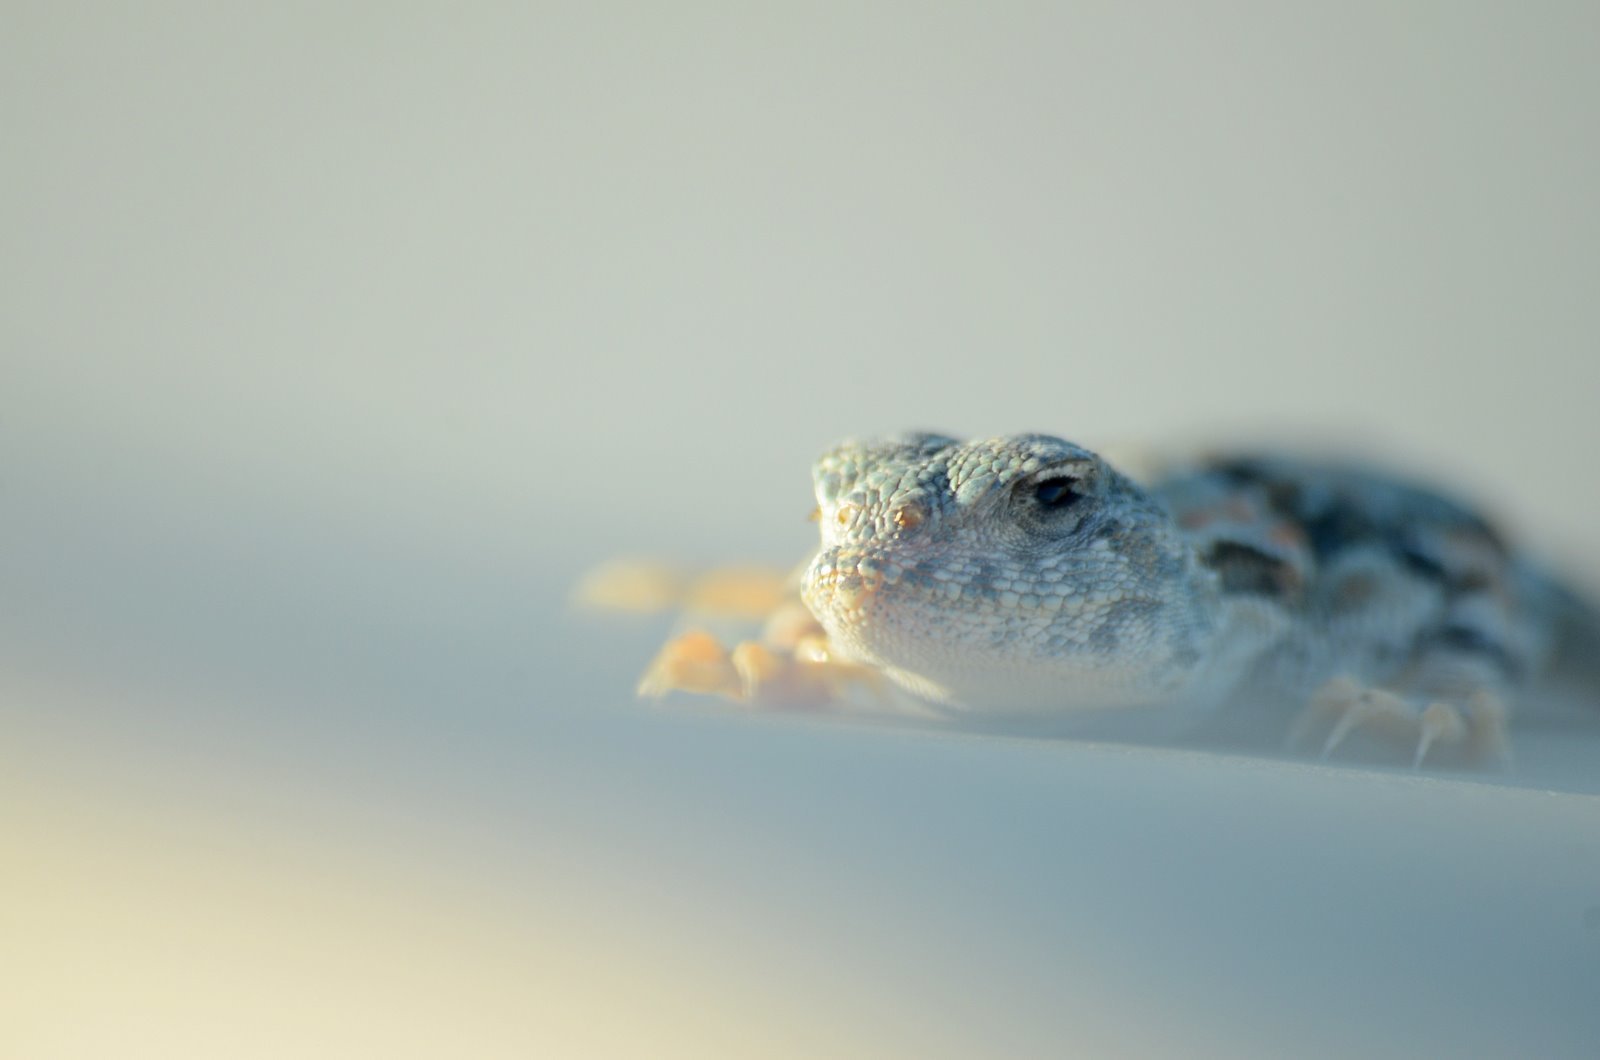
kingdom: Animalia
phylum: Chordata
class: Squamata
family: Agamidae
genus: Phrynocephalus
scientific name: Phrynocephalus versicolor
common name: Tuvan toad-headed agama
